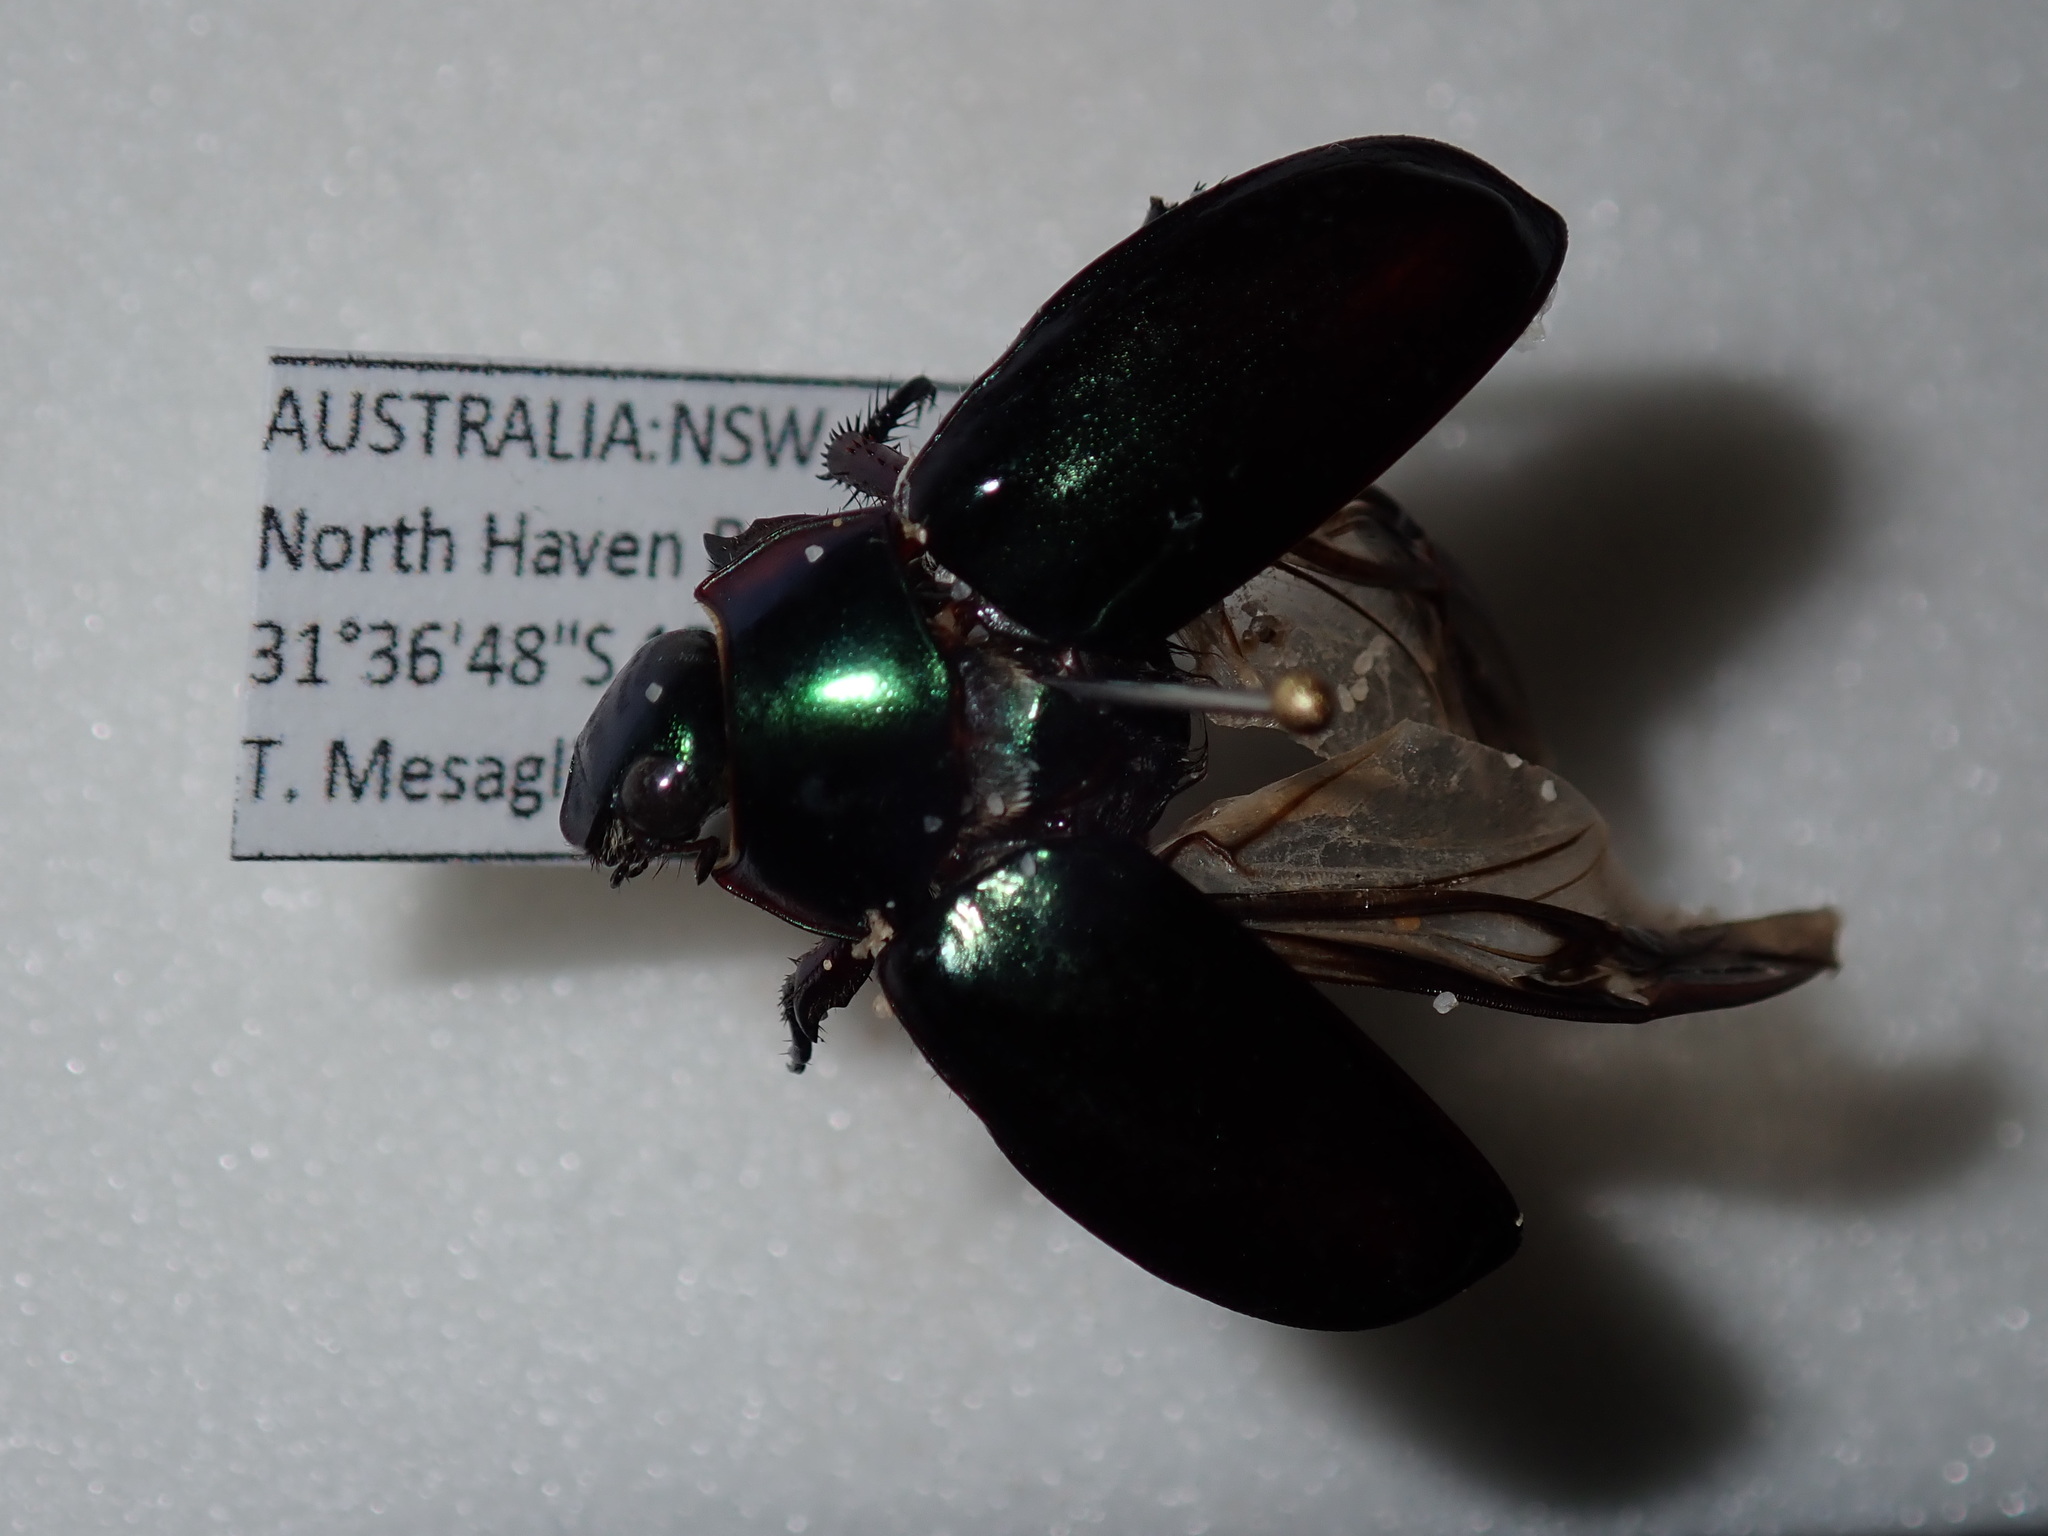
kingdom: Animalia
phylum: Arthropoda
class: Insecta
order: Coleoptera
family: Scarabaeidae
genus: Repsimus
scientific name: Repsimus aeneus
